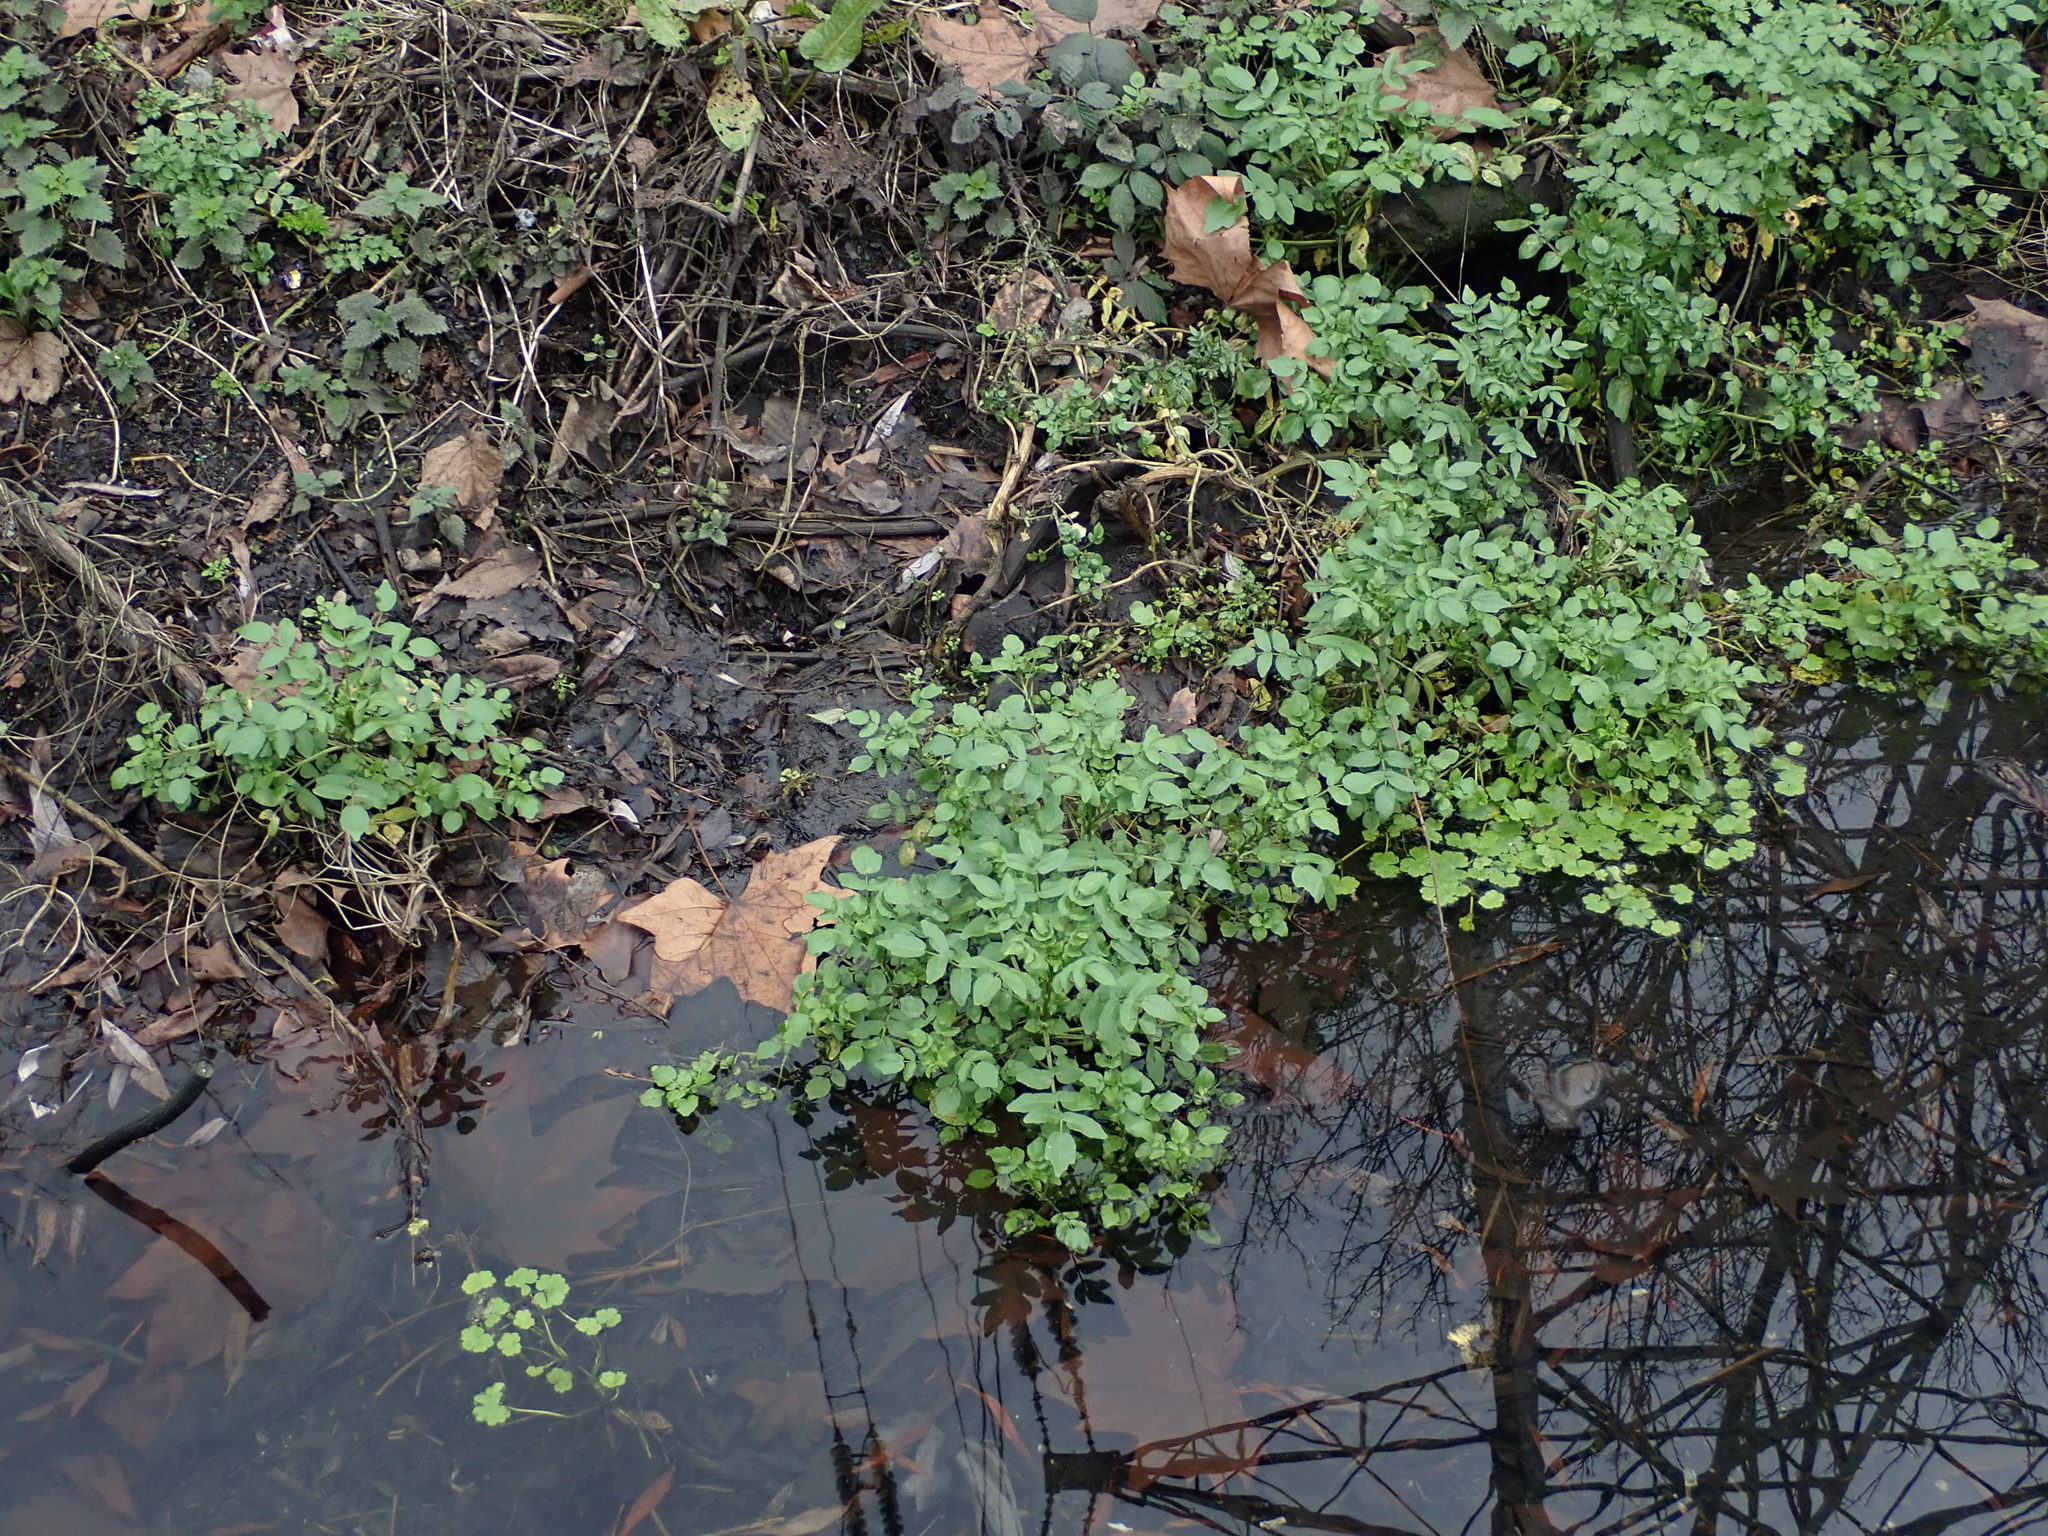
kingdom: Plantae
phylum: Tracheophyta
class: Magnoliopsida
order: Apiales
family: Apiaceae
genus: Helosciadium
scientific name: Helosciadium nodiflorum
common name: Fool's-watercress
